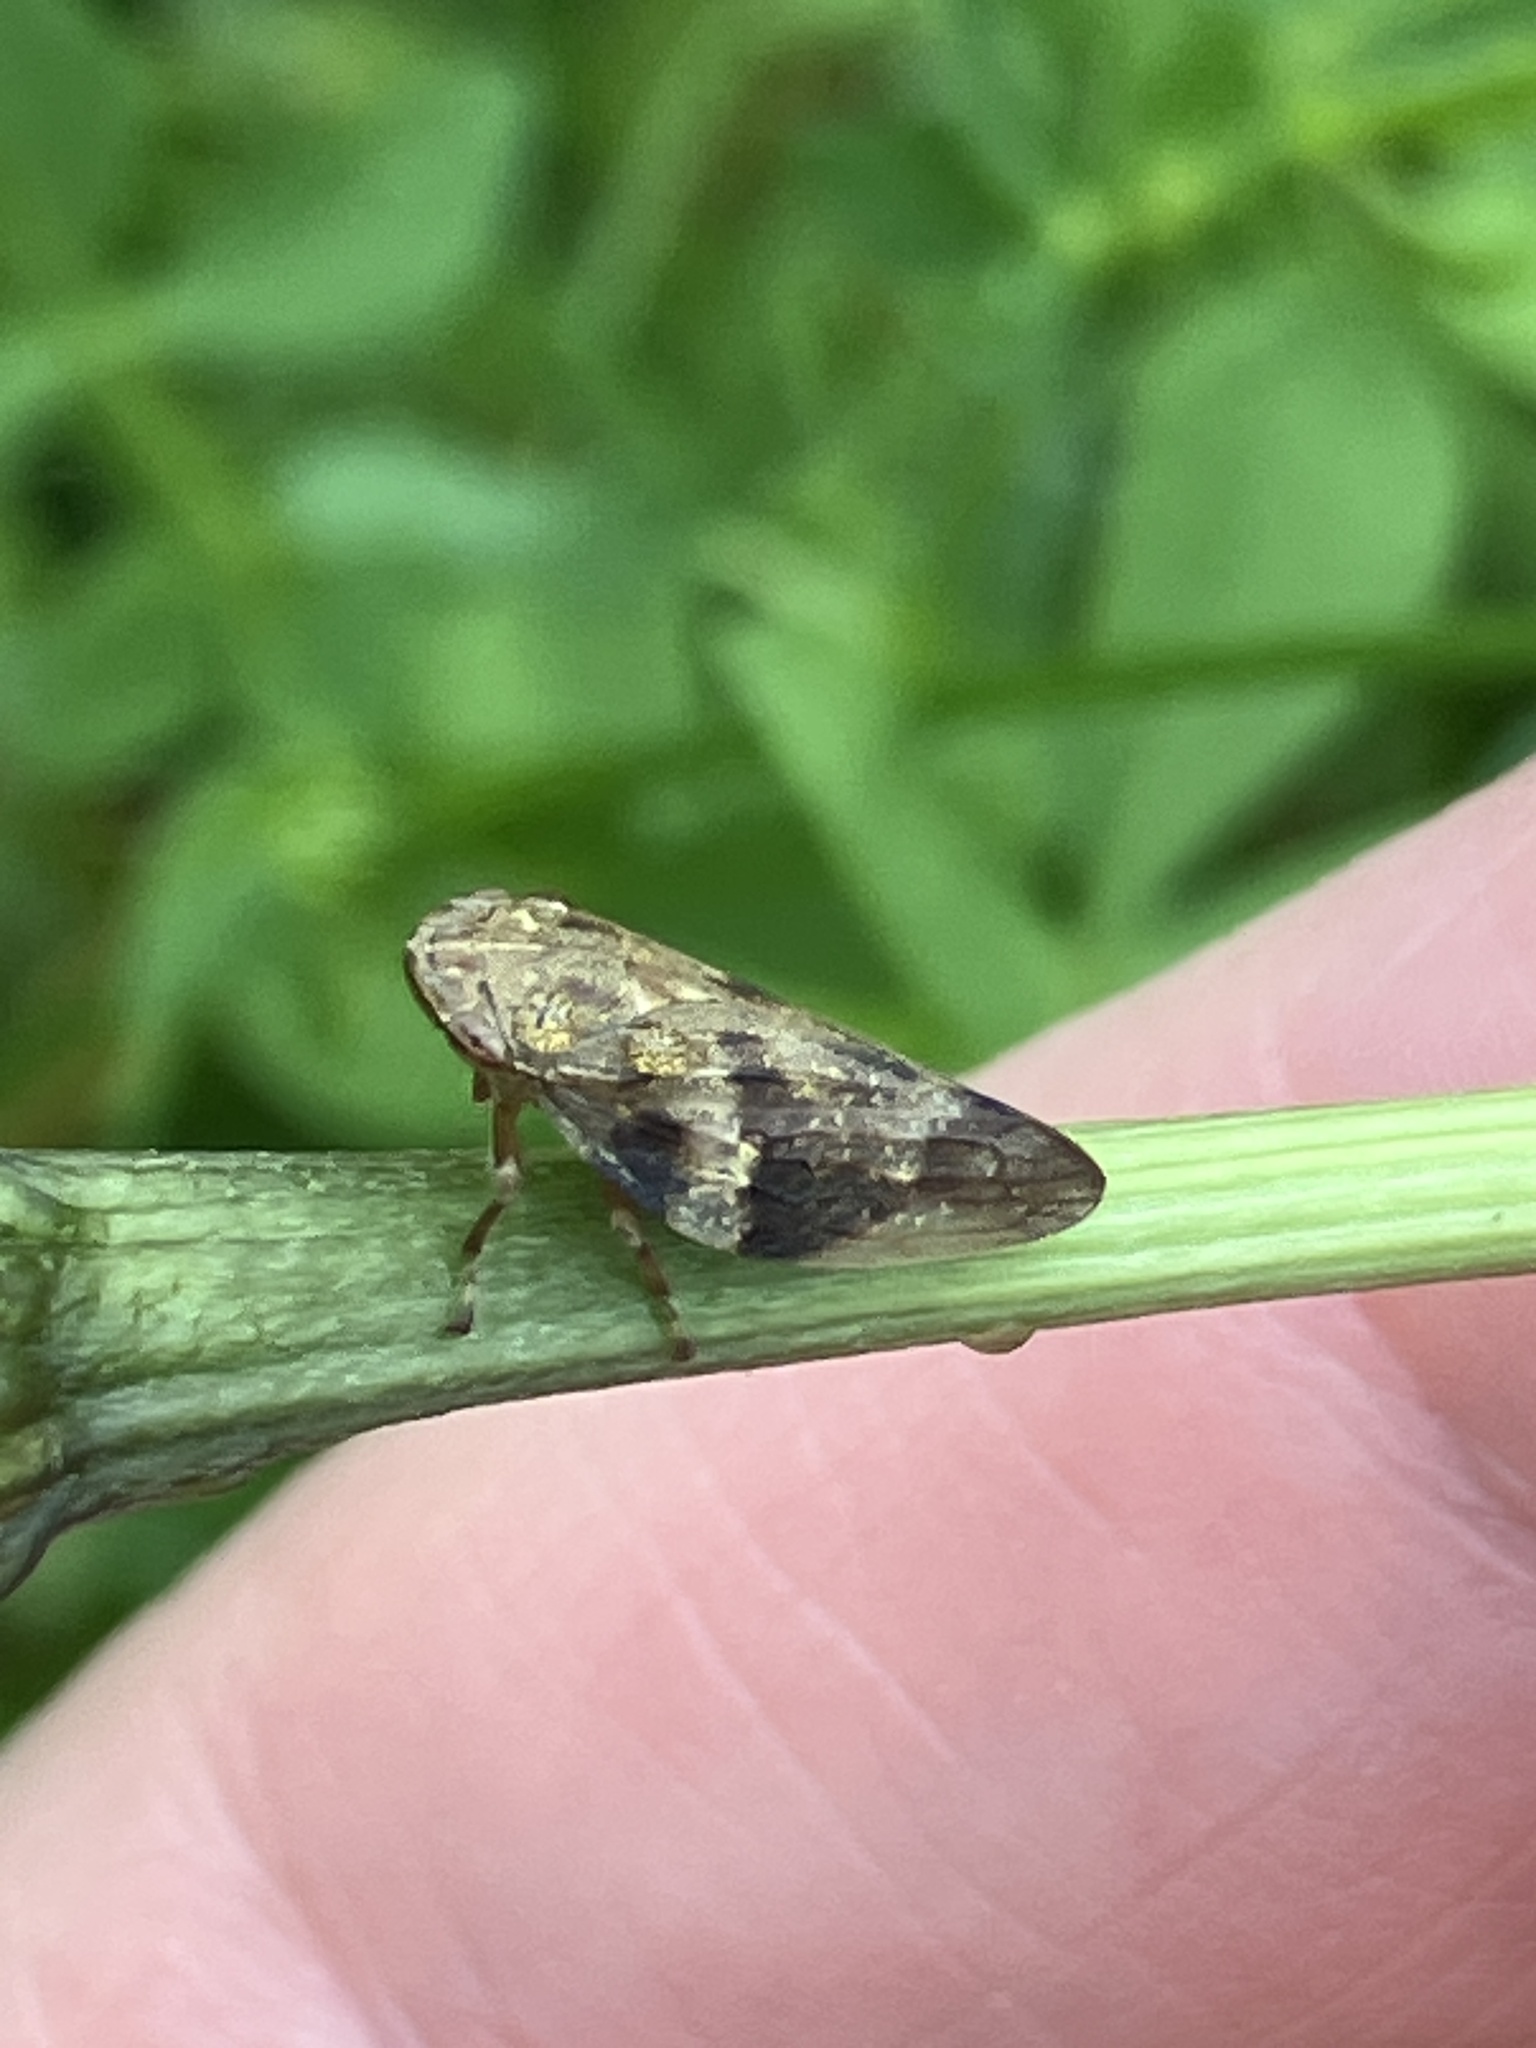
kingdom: Animalia
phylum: Arthropoda
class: Insecta
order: Hemiptera
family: Aphrophoridae
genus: Aphrophora
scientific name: Aphrophora alni
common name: European alder spittlebug
